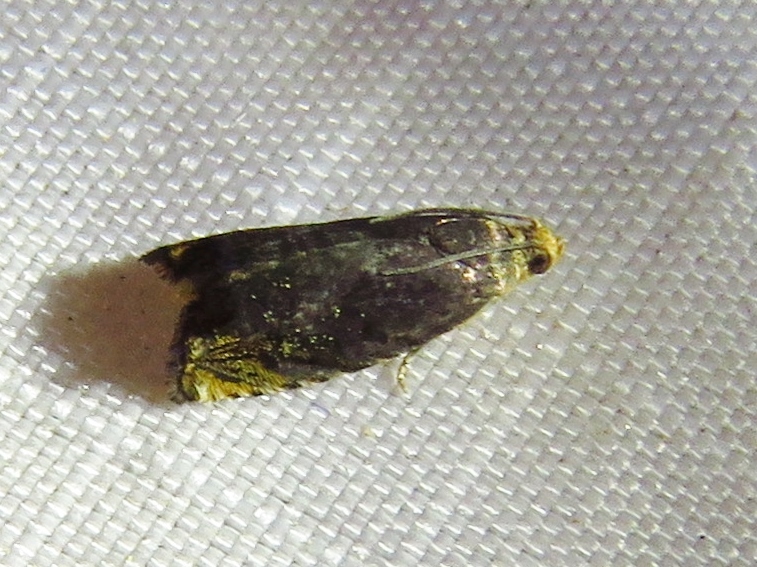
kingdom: Animalia
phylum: Arthropoda
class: Insecta
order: Lepidoptera
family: Tortricidae
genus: Cydia
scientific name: Cydia caryana
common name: Hickory shuckworm moth
